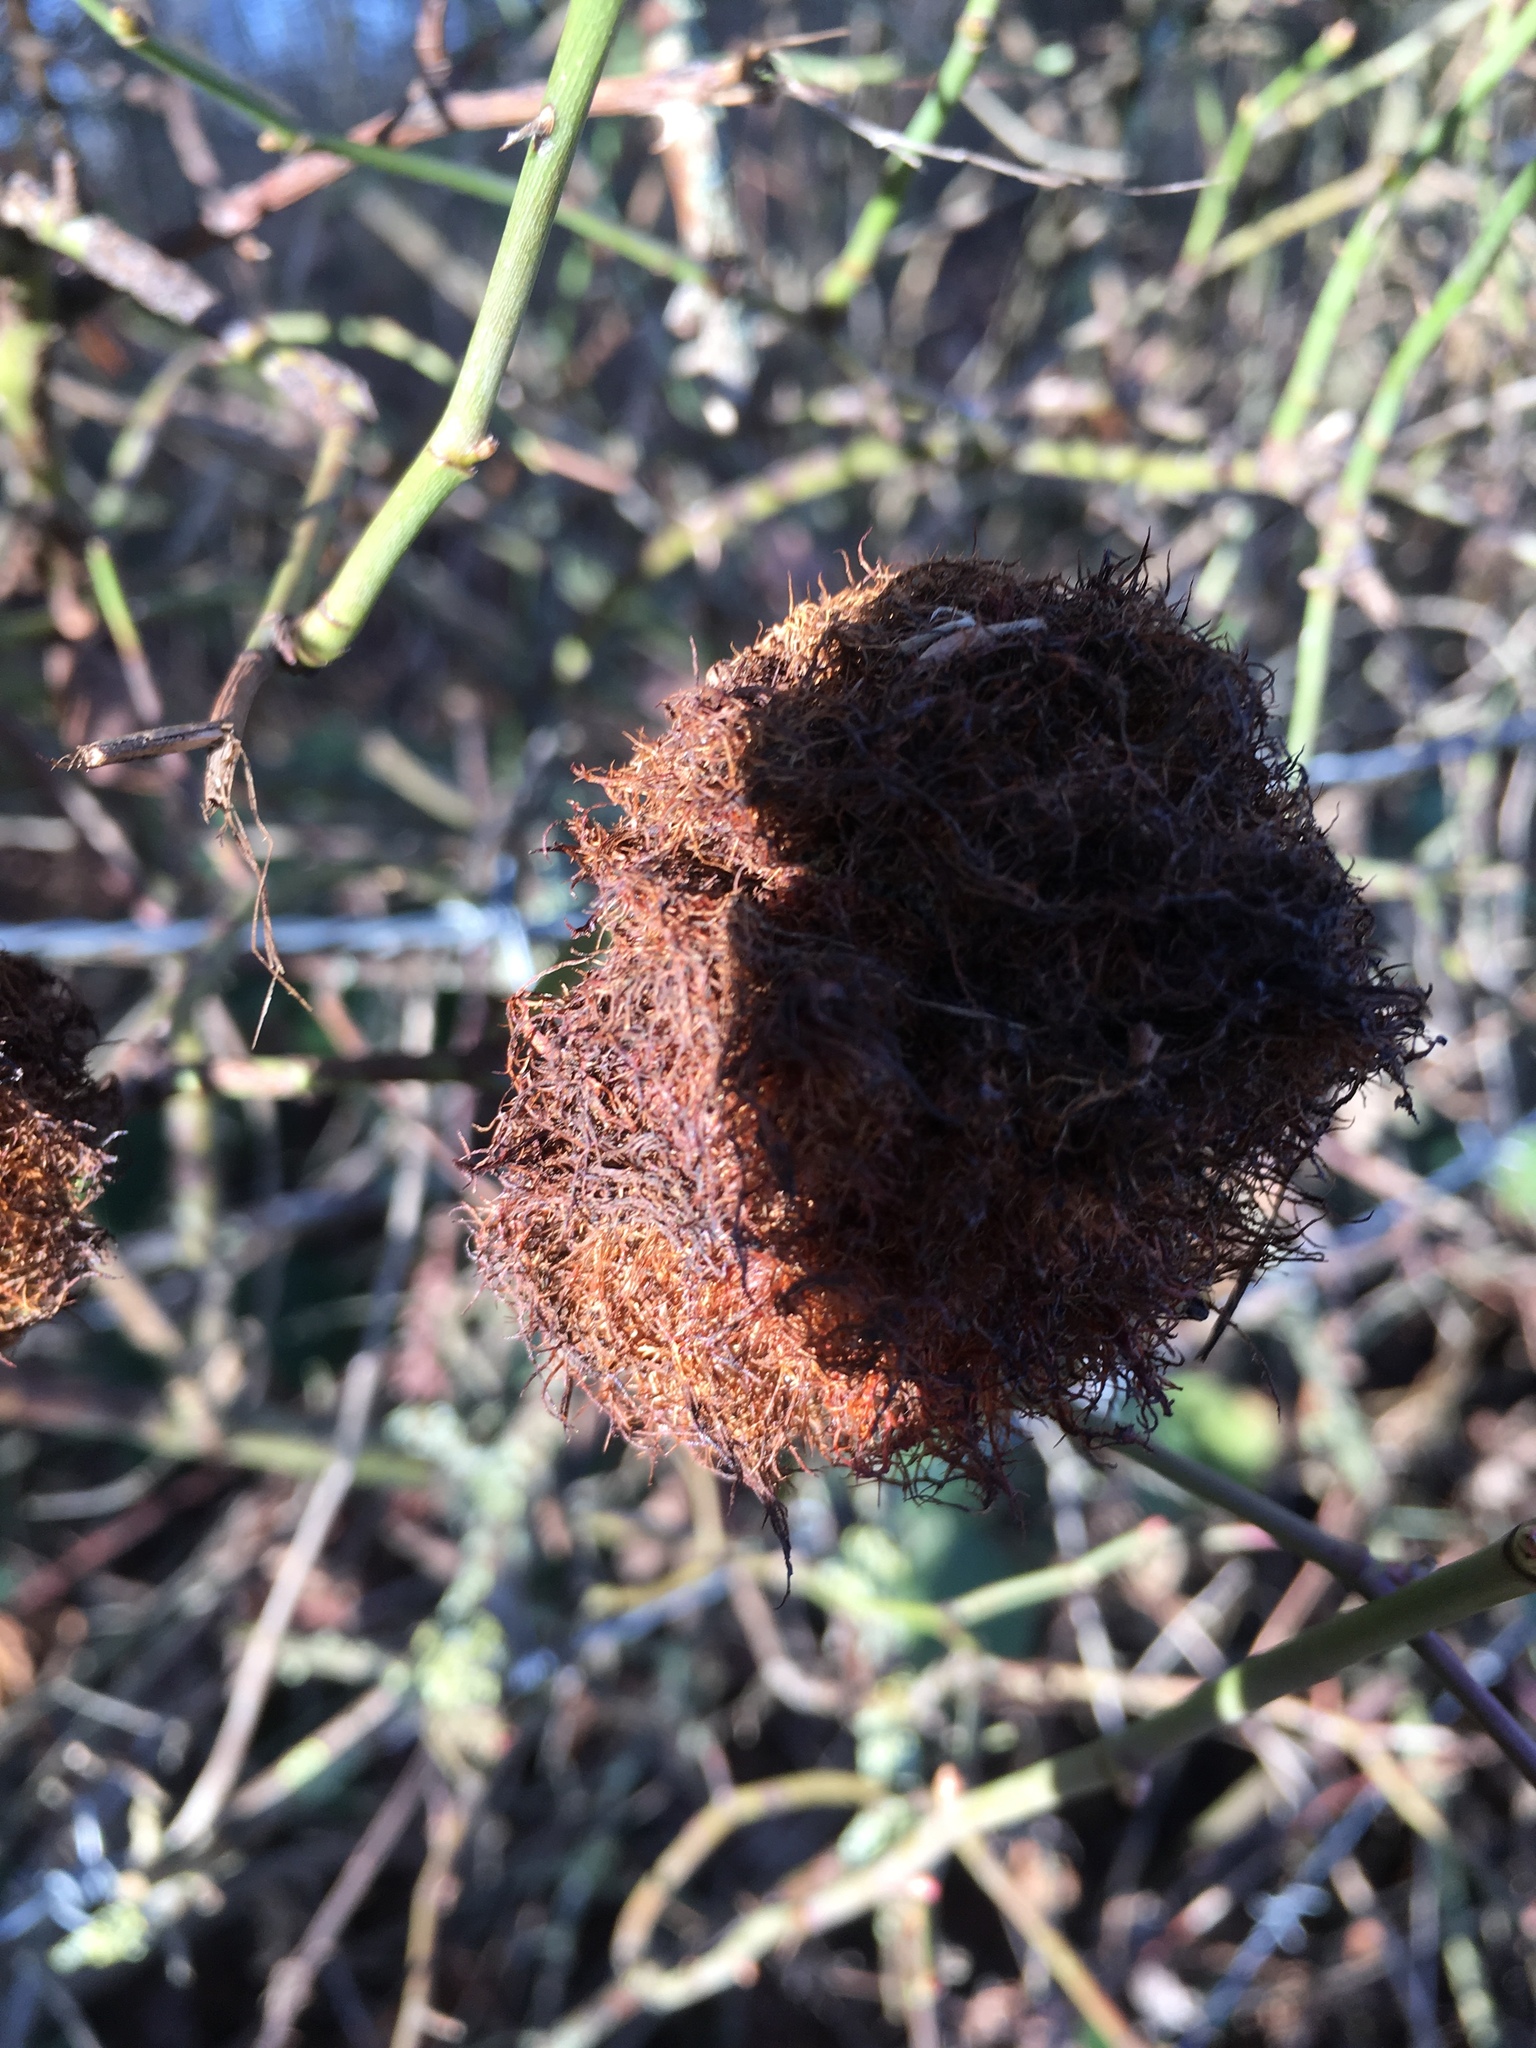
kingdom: Animalia
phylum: Arthropoda
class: Insecta
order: Hymenoptera
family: Cynipidae
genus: Diplolepis
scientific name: Diplolepis rosae
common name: Bedeguar gall
